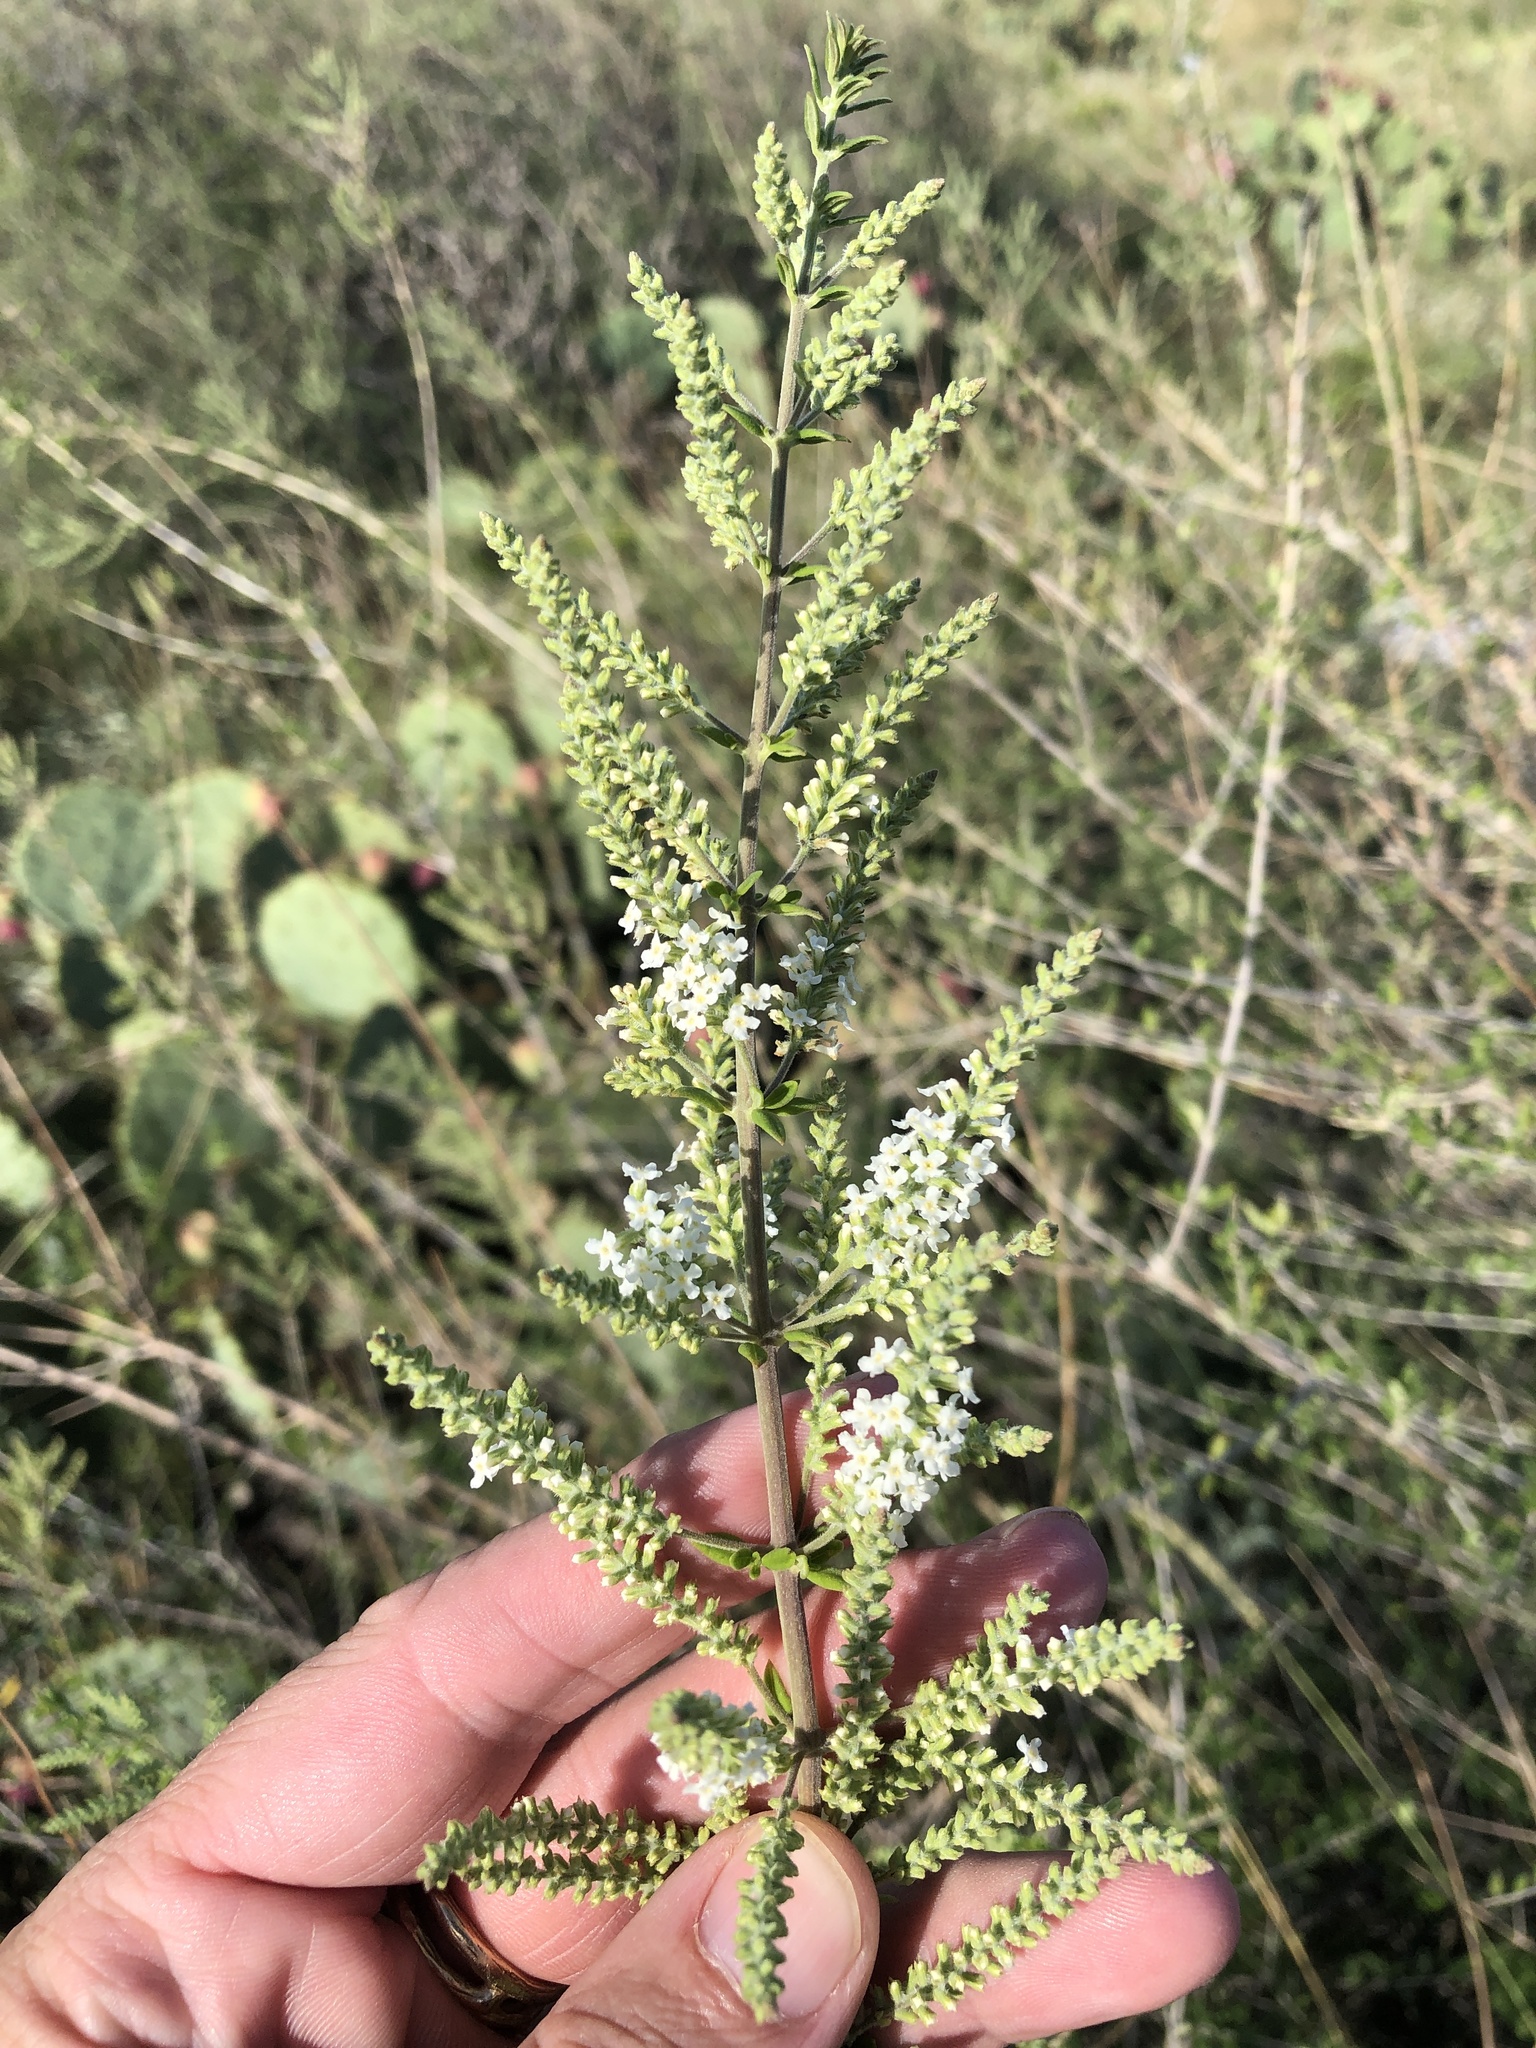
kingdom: Plantae
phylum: Tracheophyta
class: Magnoliopsida
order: Lamiales
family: Verbenaceae
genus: Aloysia
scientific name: Aloysia gratissima
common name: Common bee-brush
